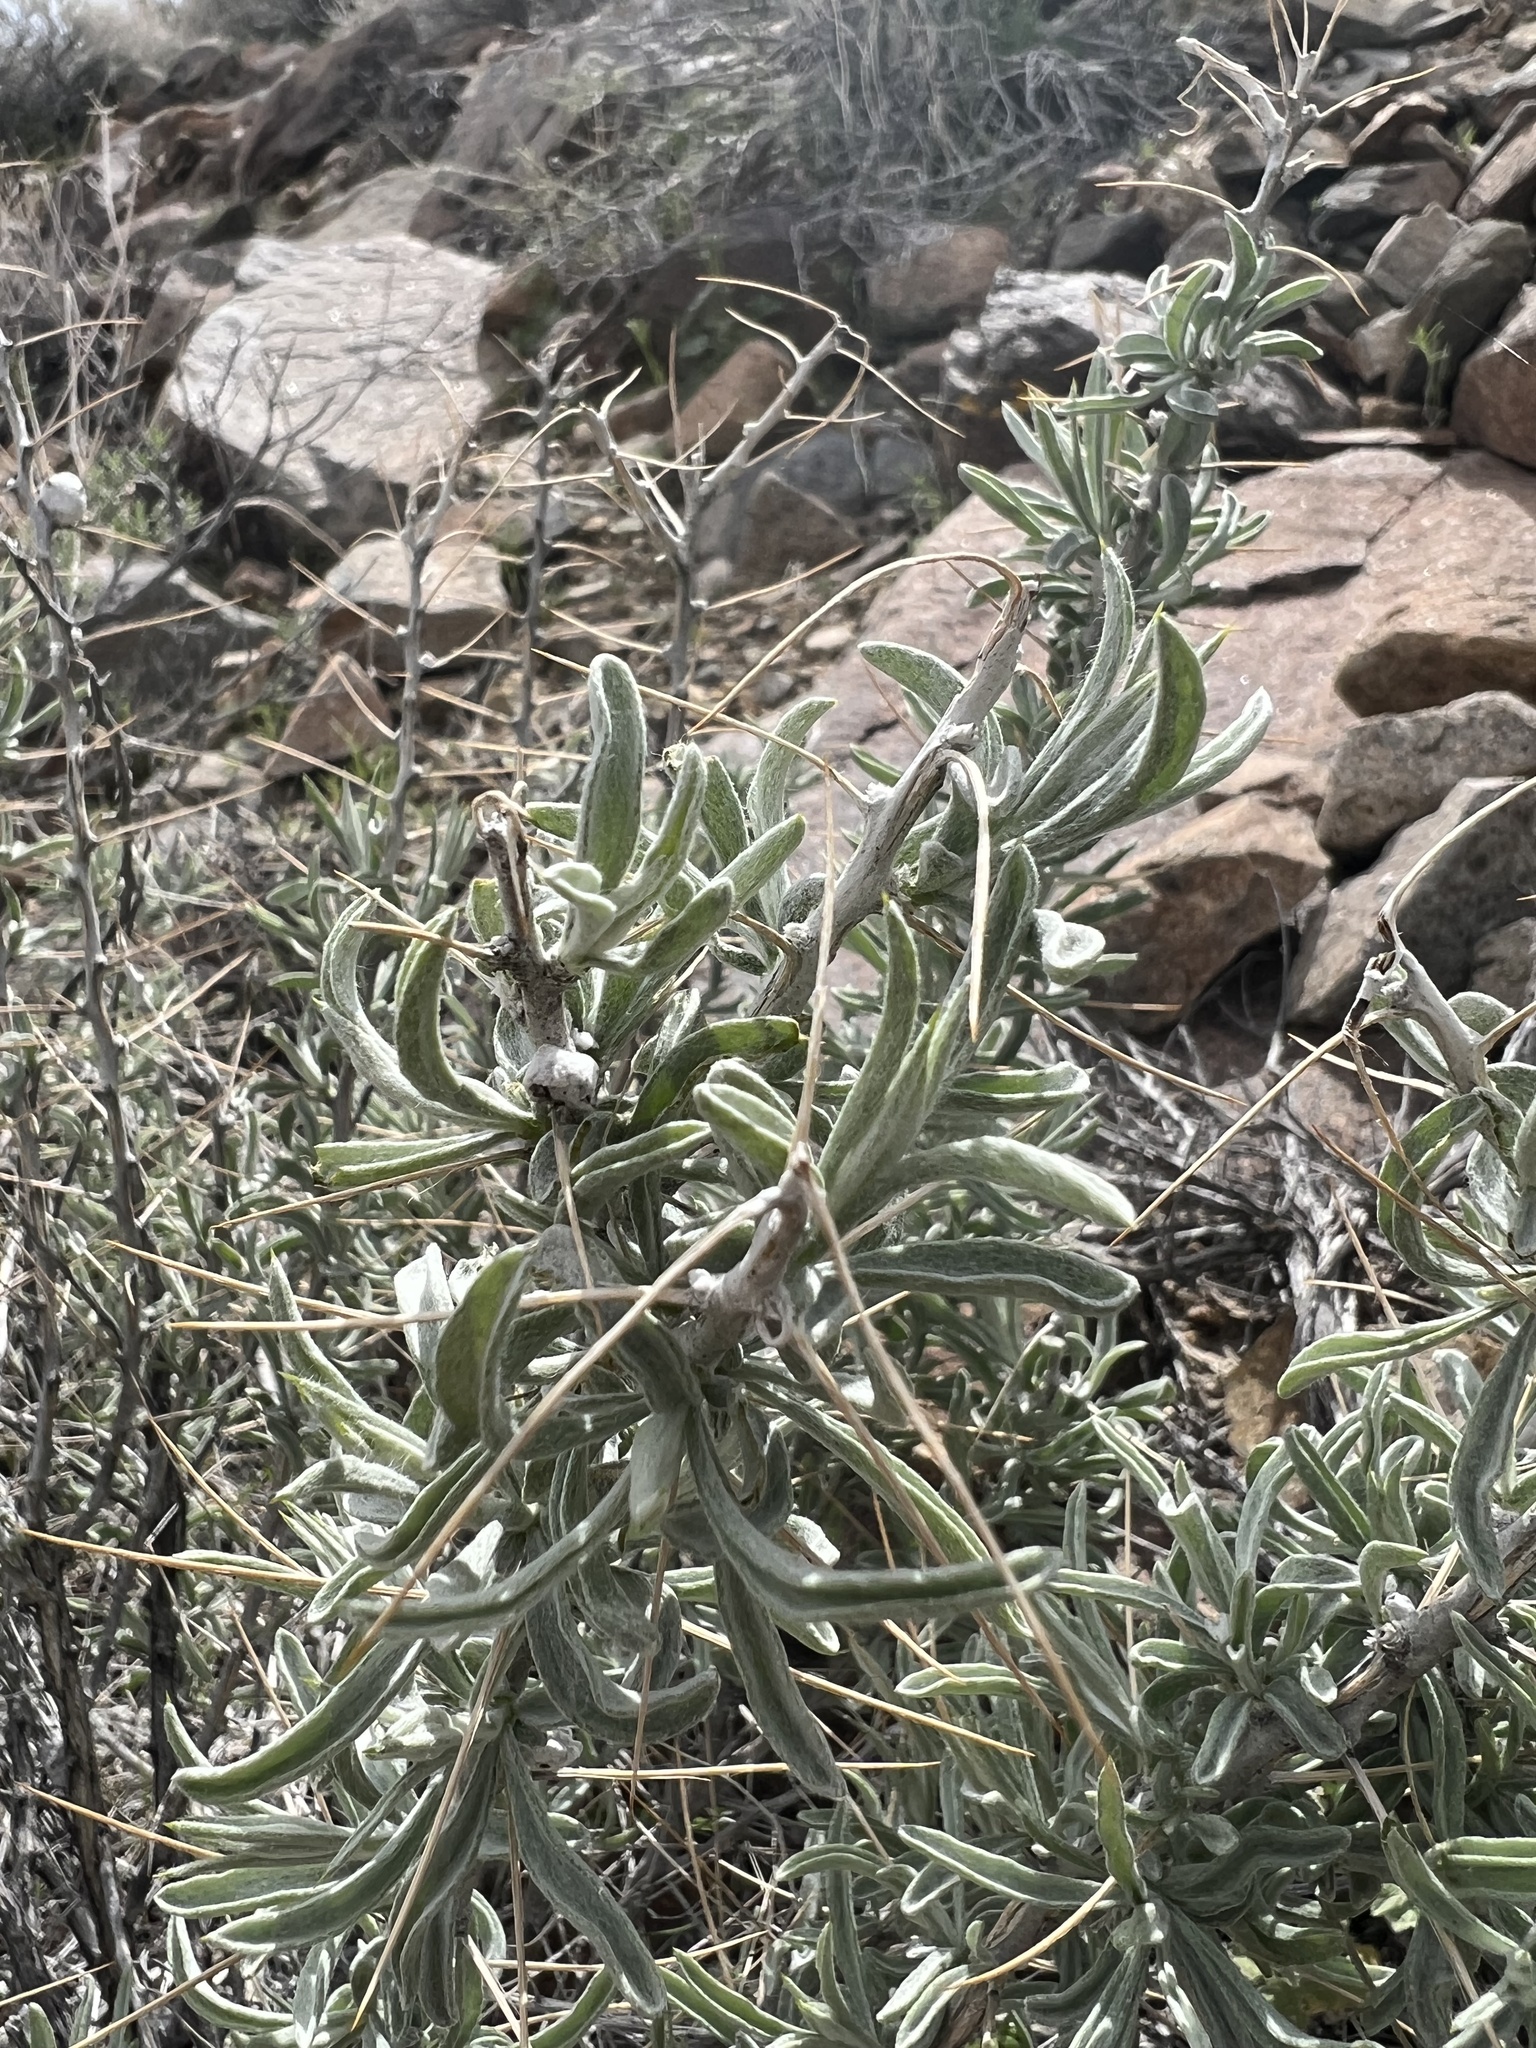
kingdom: Plantae
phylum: Tracheophyta
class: Magnoliopsida
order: Asterales
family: Asteraceae
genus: Tetradymia
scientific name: Tetradymia stenolepis
